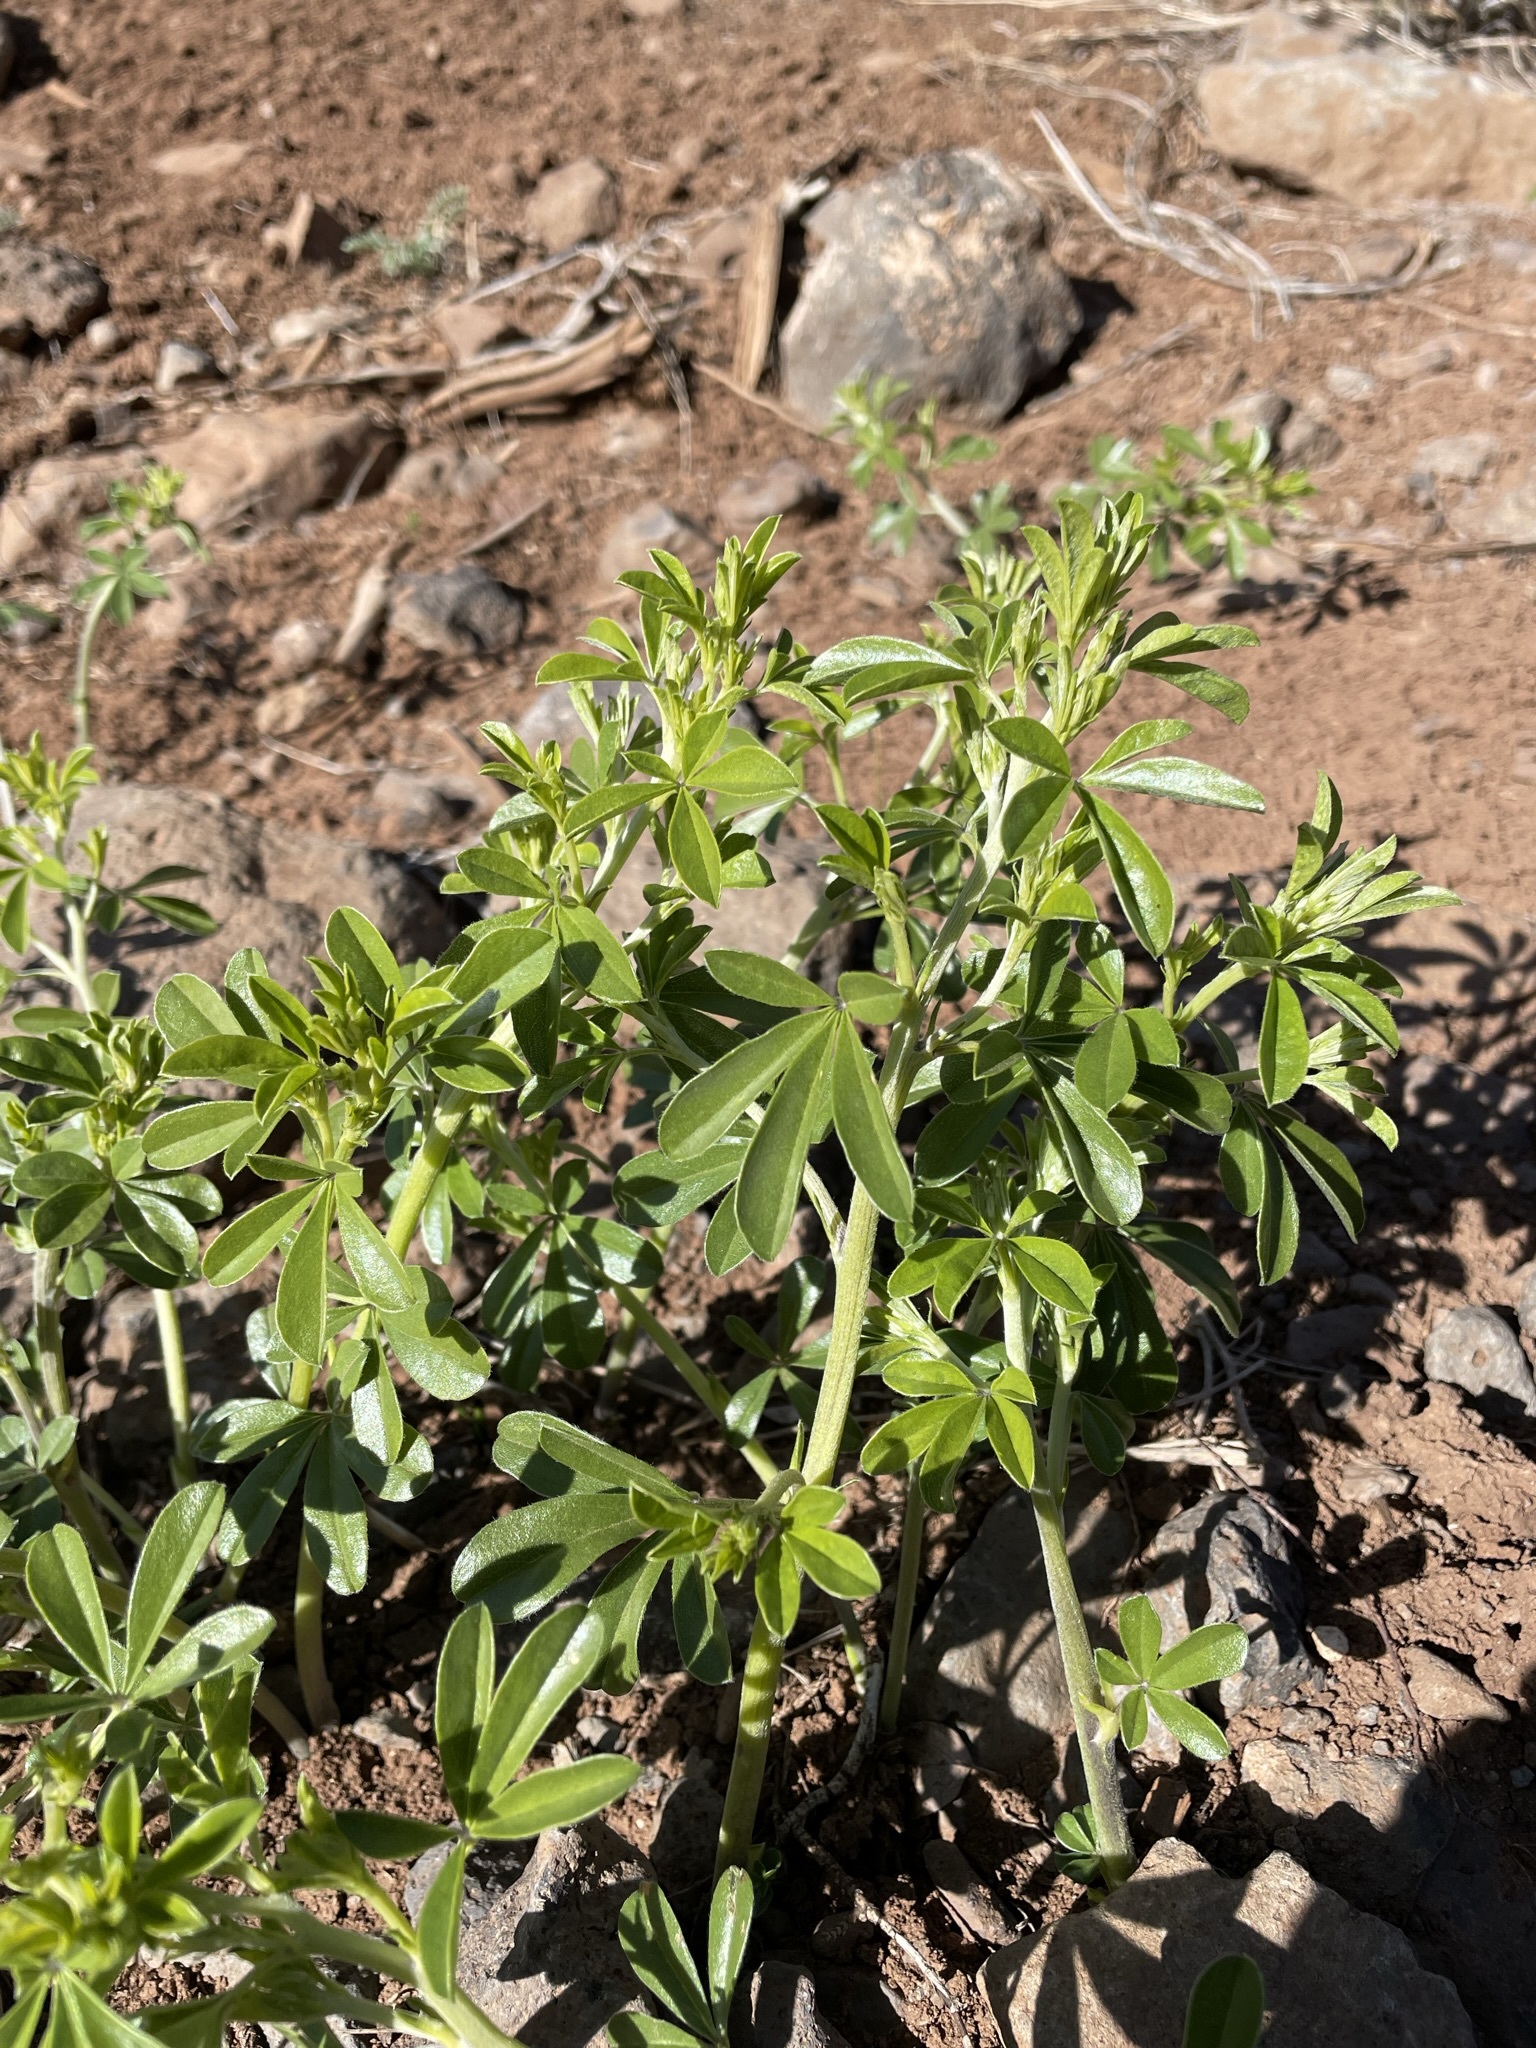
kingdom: Plantae
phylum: Tracheophyta
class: Magnoliopsida
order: Fabales
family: Fabaceae
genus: Pediomelum
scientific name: Pediomelum tenuiflorum
